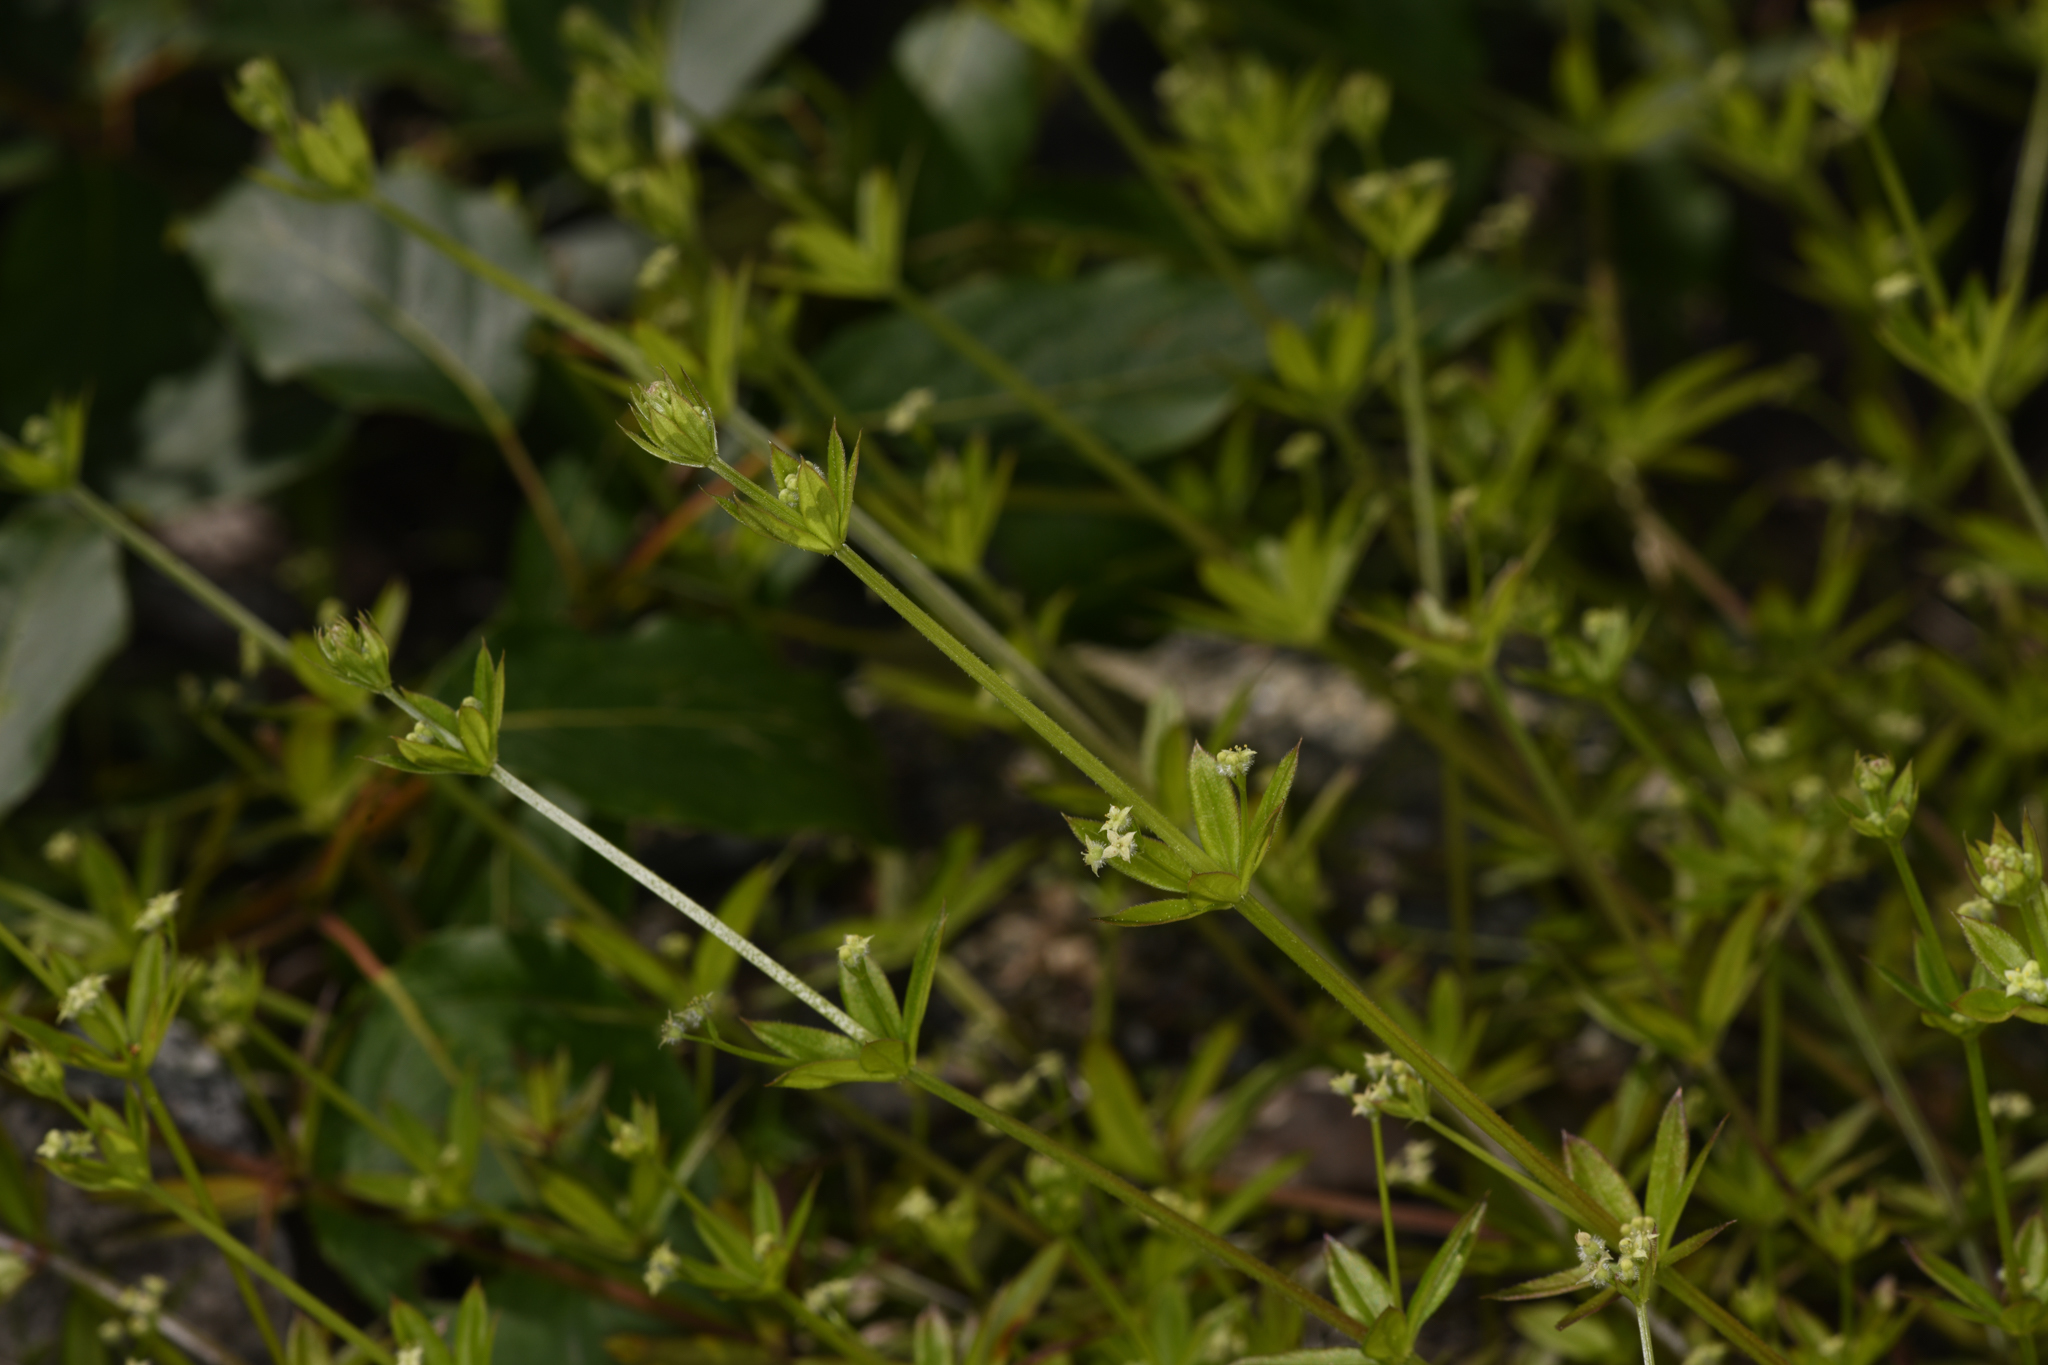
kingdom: Plantae
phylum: Tracheophyta
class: Magnoliopsida
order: Gentianales
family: Rubiaceae
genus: Galium
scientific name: Galium triflorum
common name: Fragrant bedstraw
